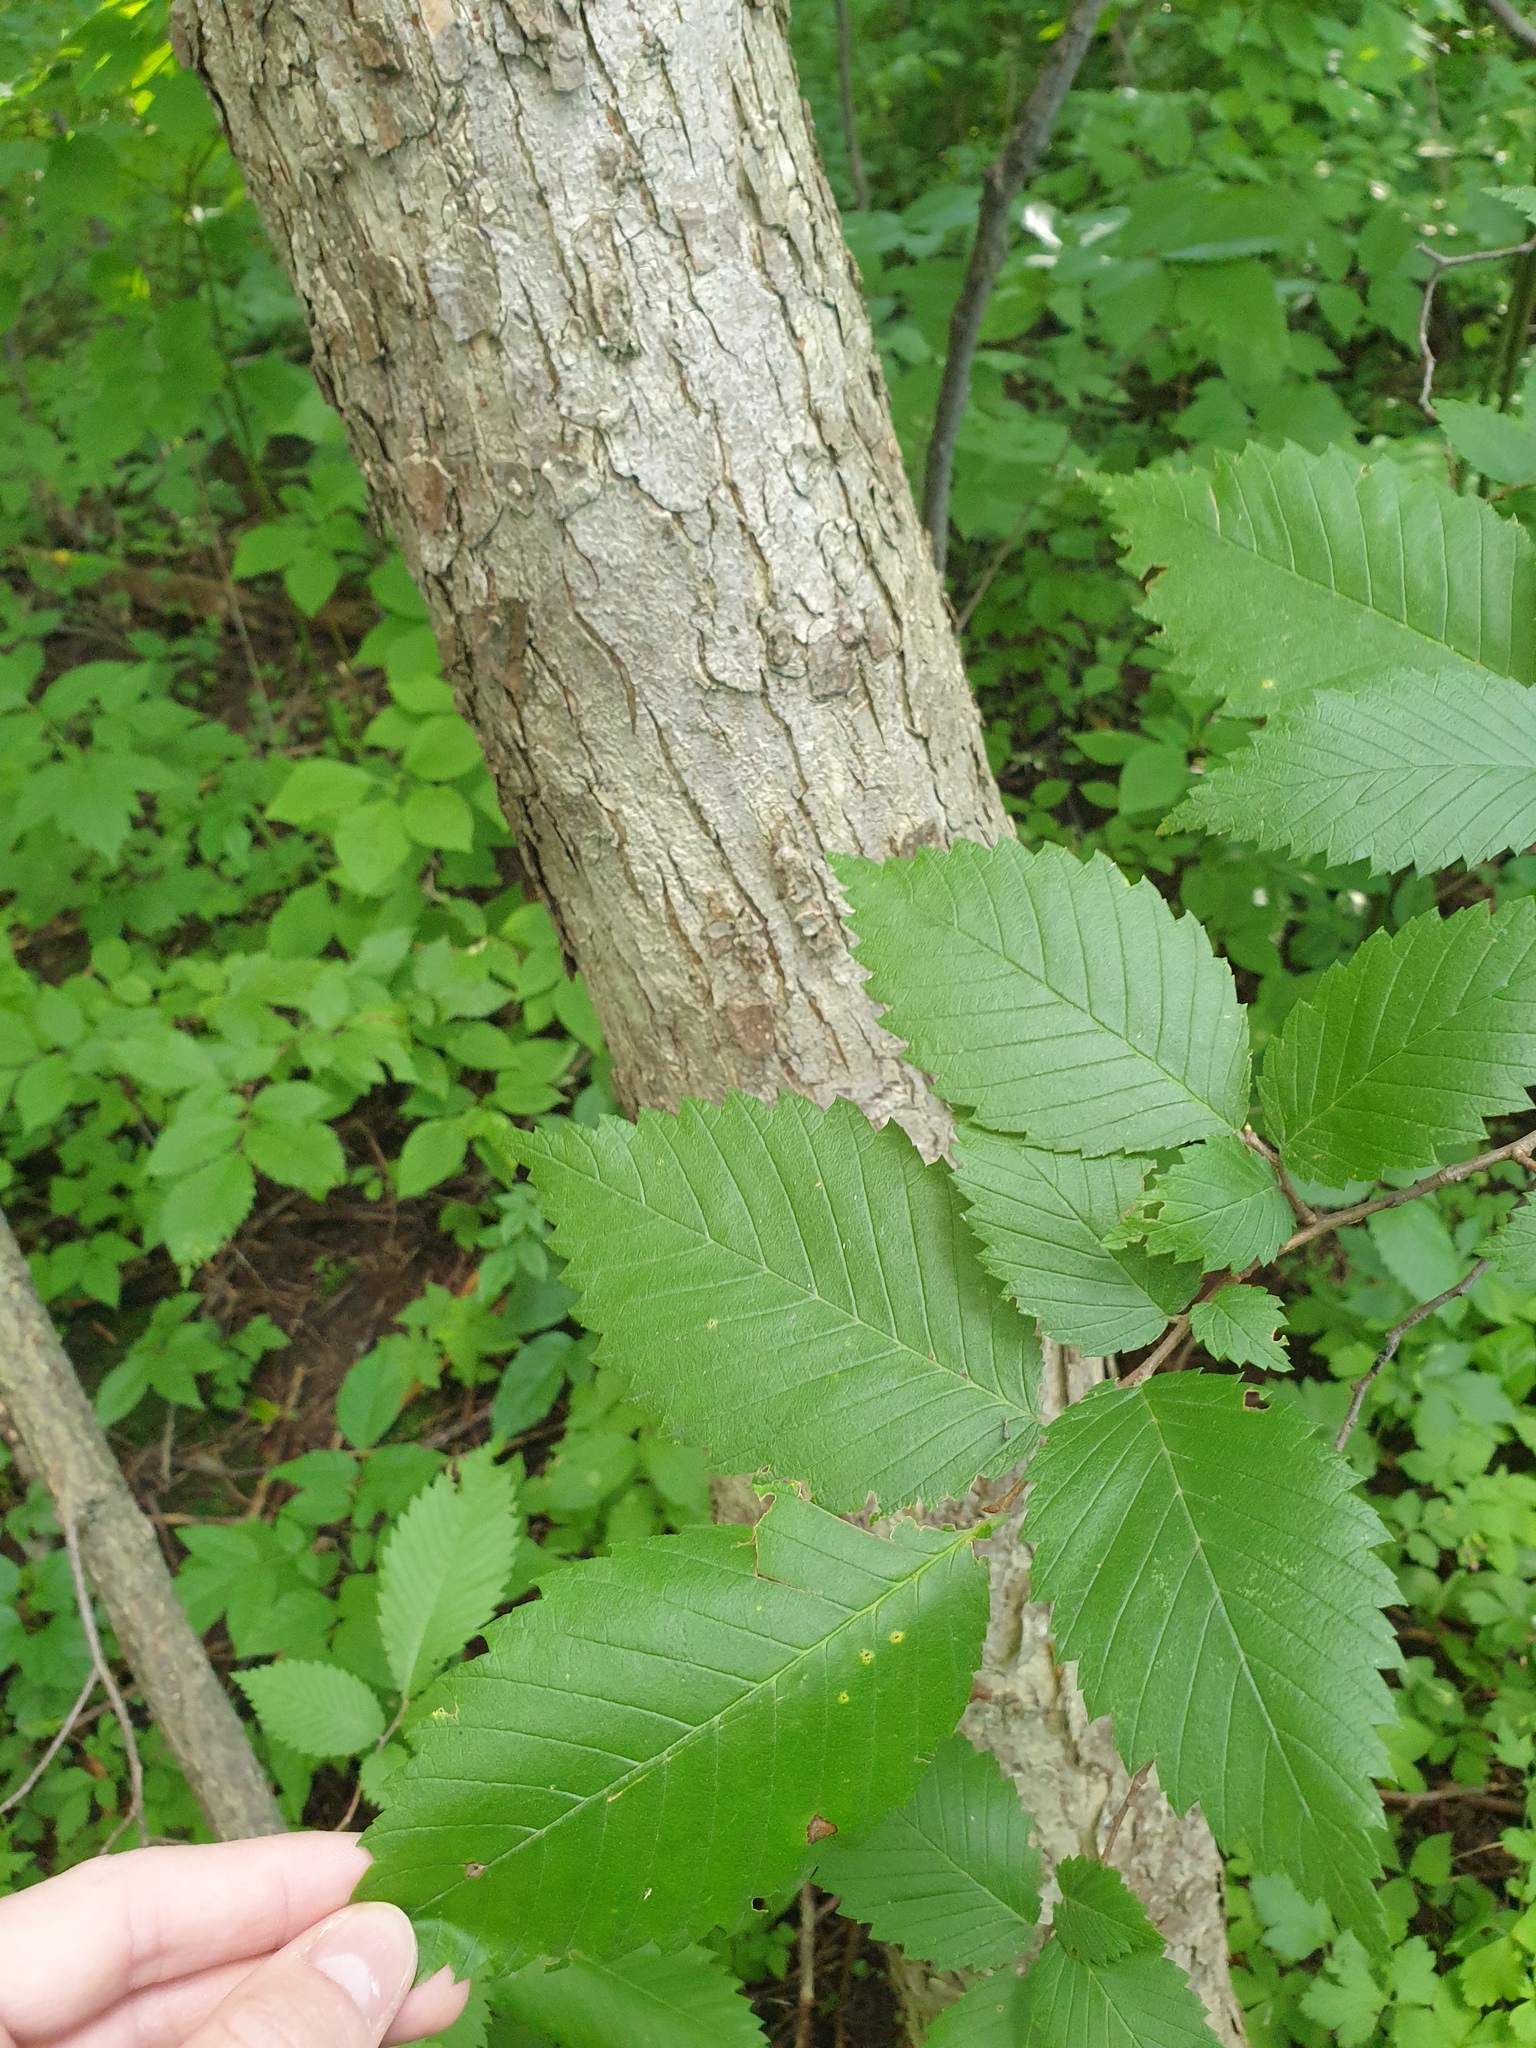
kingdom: Plantae
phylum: Tracheophyta
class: Magnoliopsida
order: Rosales
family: Ulmaceae
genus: Ulmus
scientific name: Ulmus americana
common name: American elm
